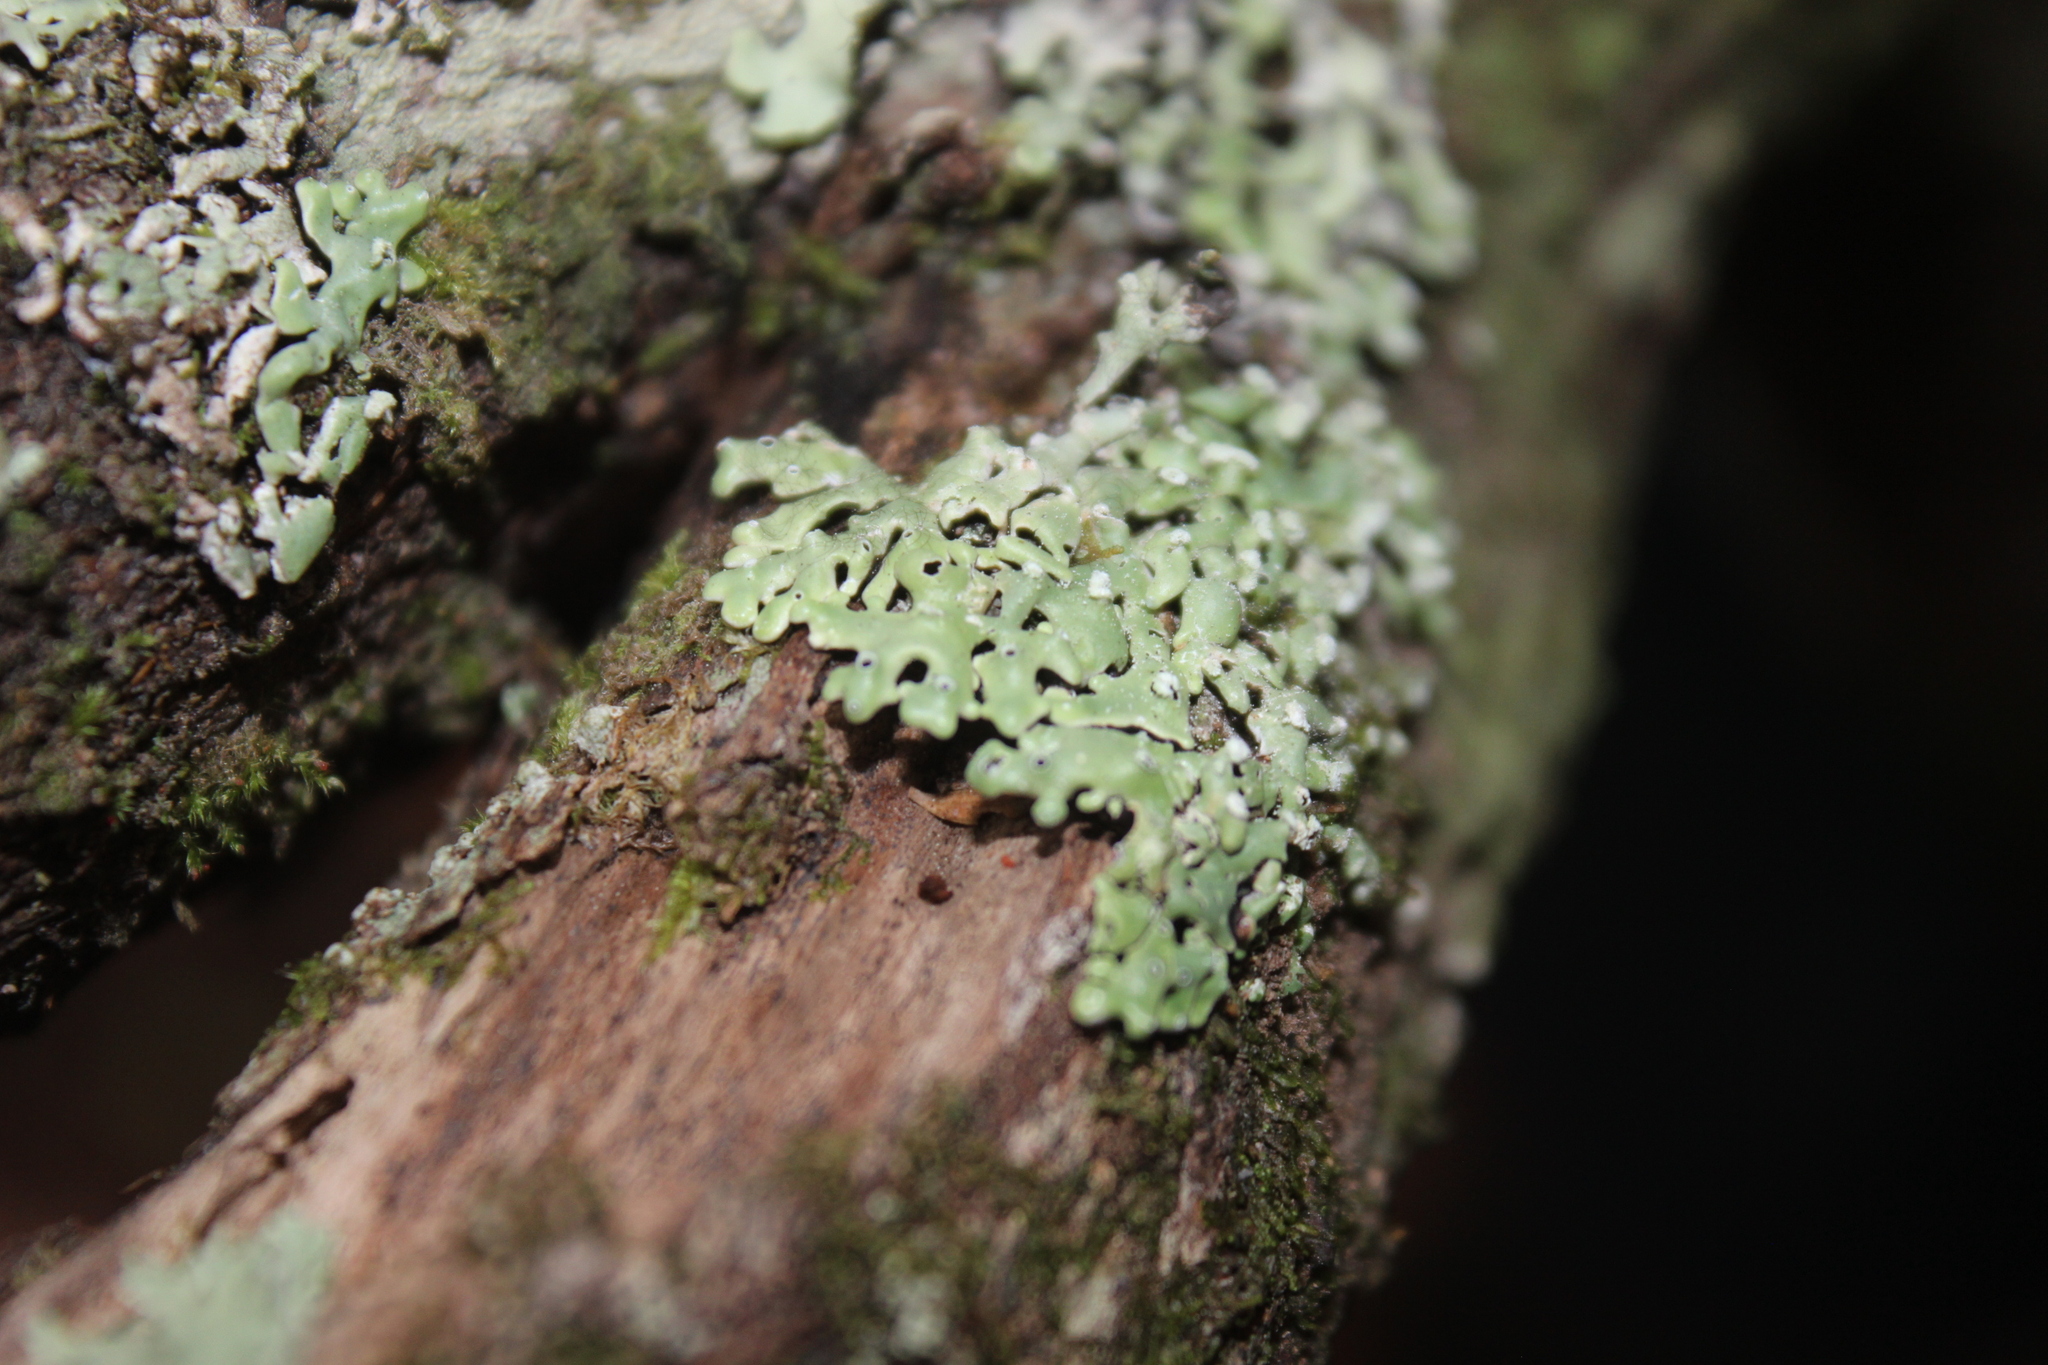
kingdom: Fungi
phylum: Ascomycota
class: Lecanoromycetes
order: Lecanorales
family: Parmeliaceae
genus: Menegazzia
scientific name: Menegazzia neozelandica
